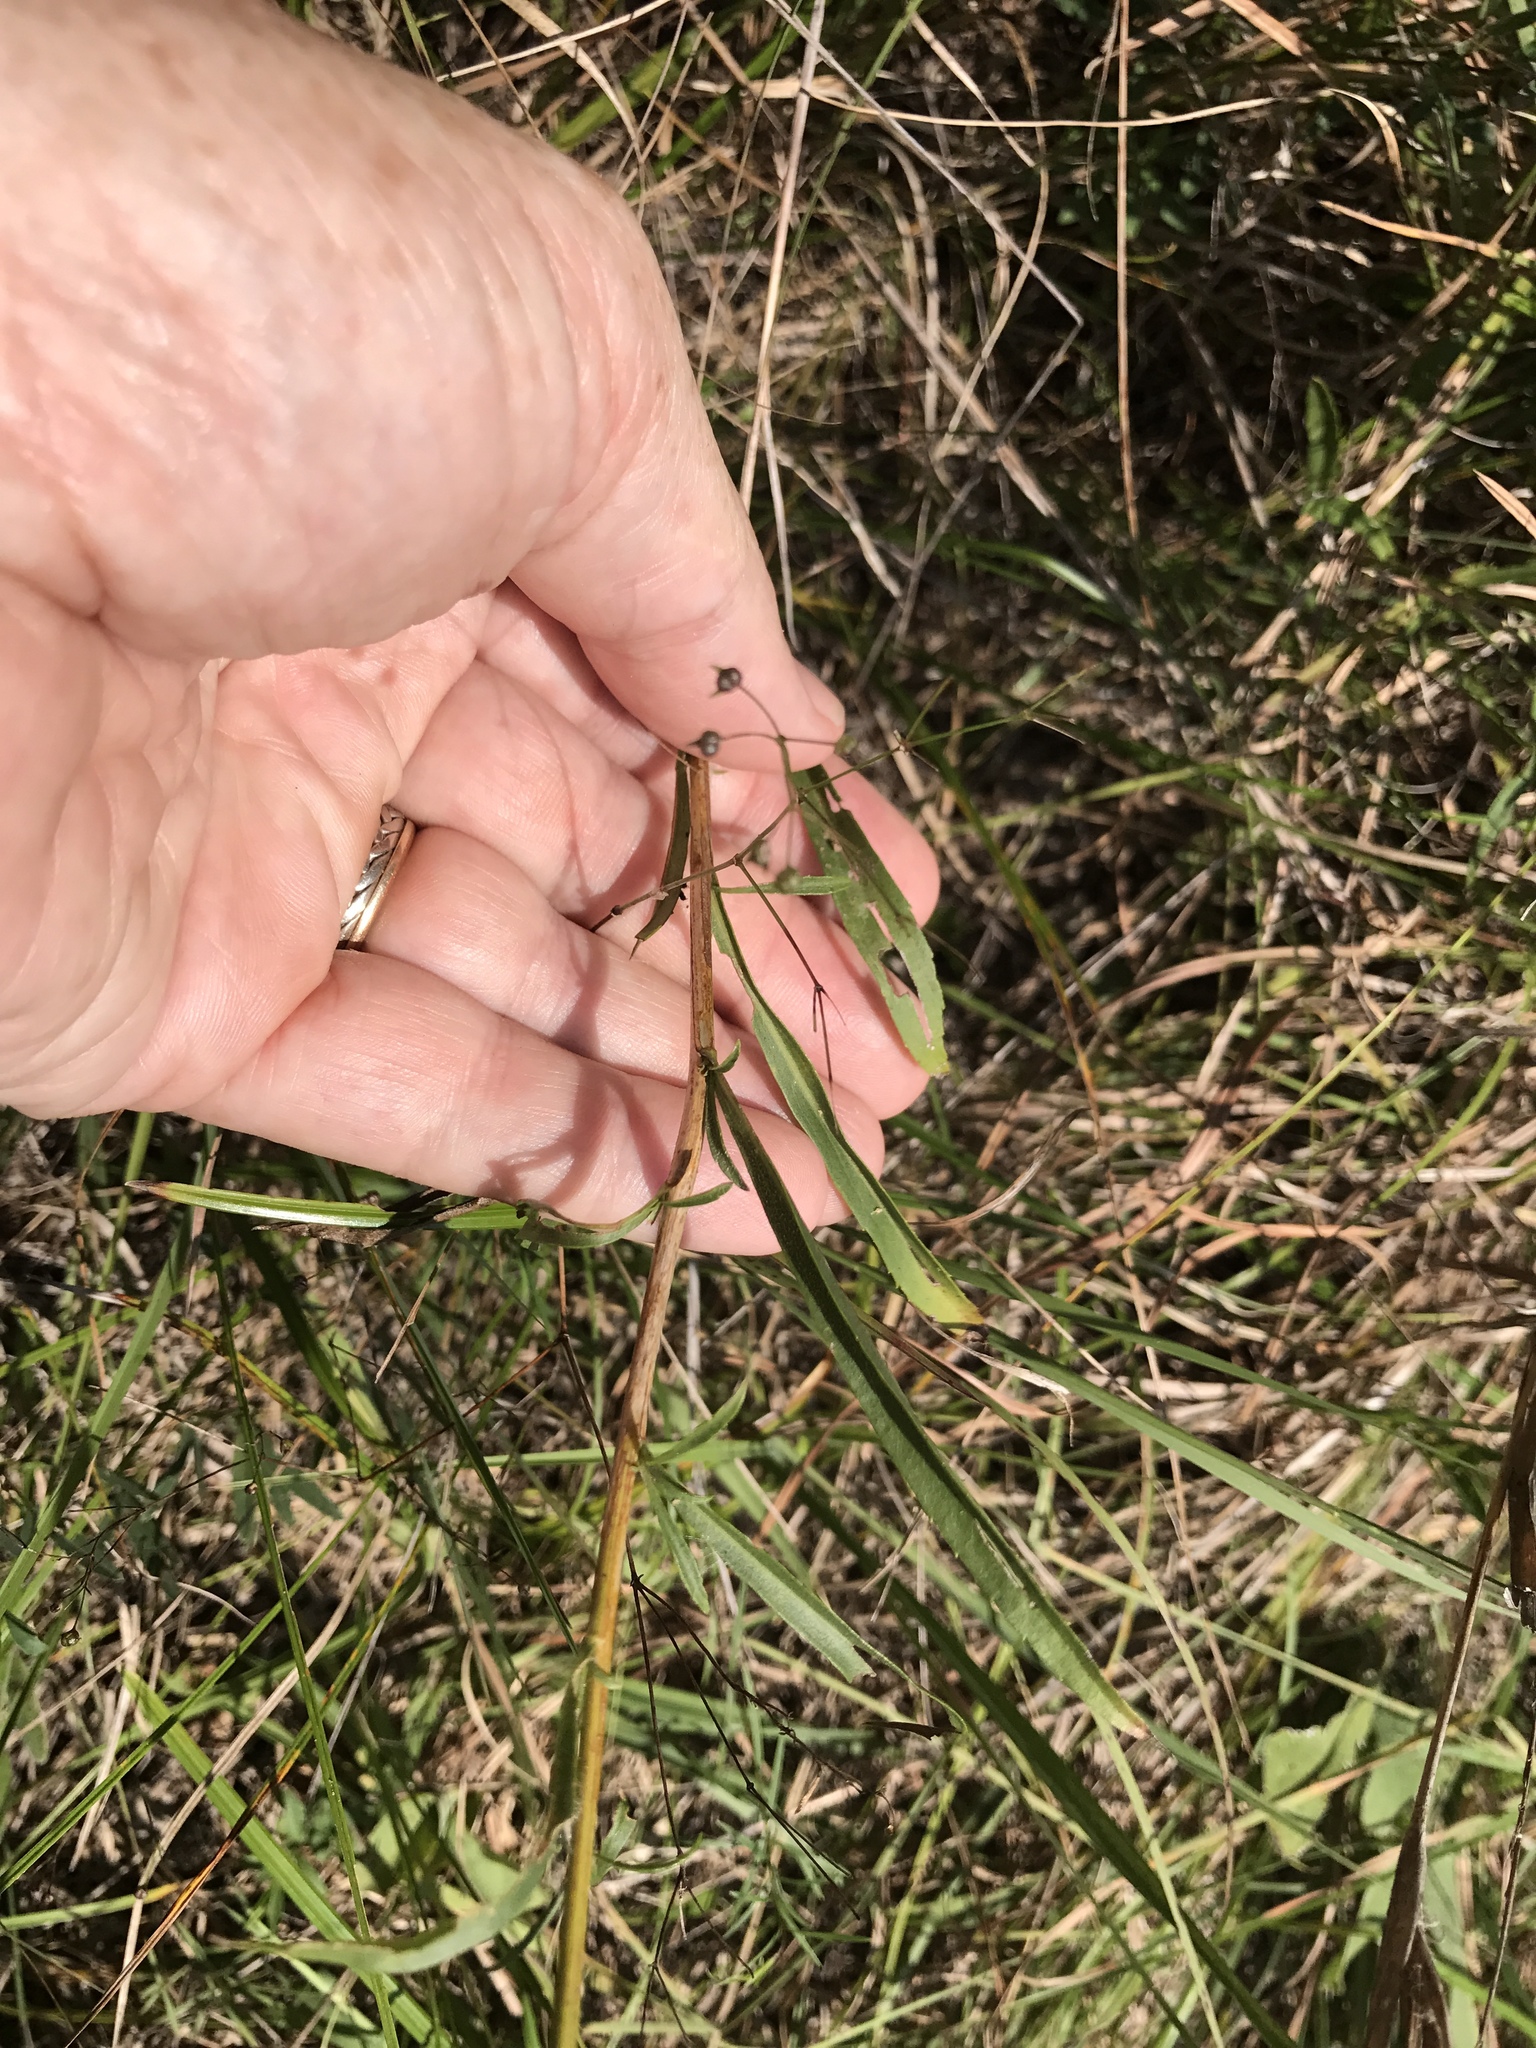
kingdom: Plantae
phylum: Tracheophyta
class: Magnoliopsida
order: Asterales
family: Asteraceae
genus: Solidago
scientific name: Solidago pinetorum
